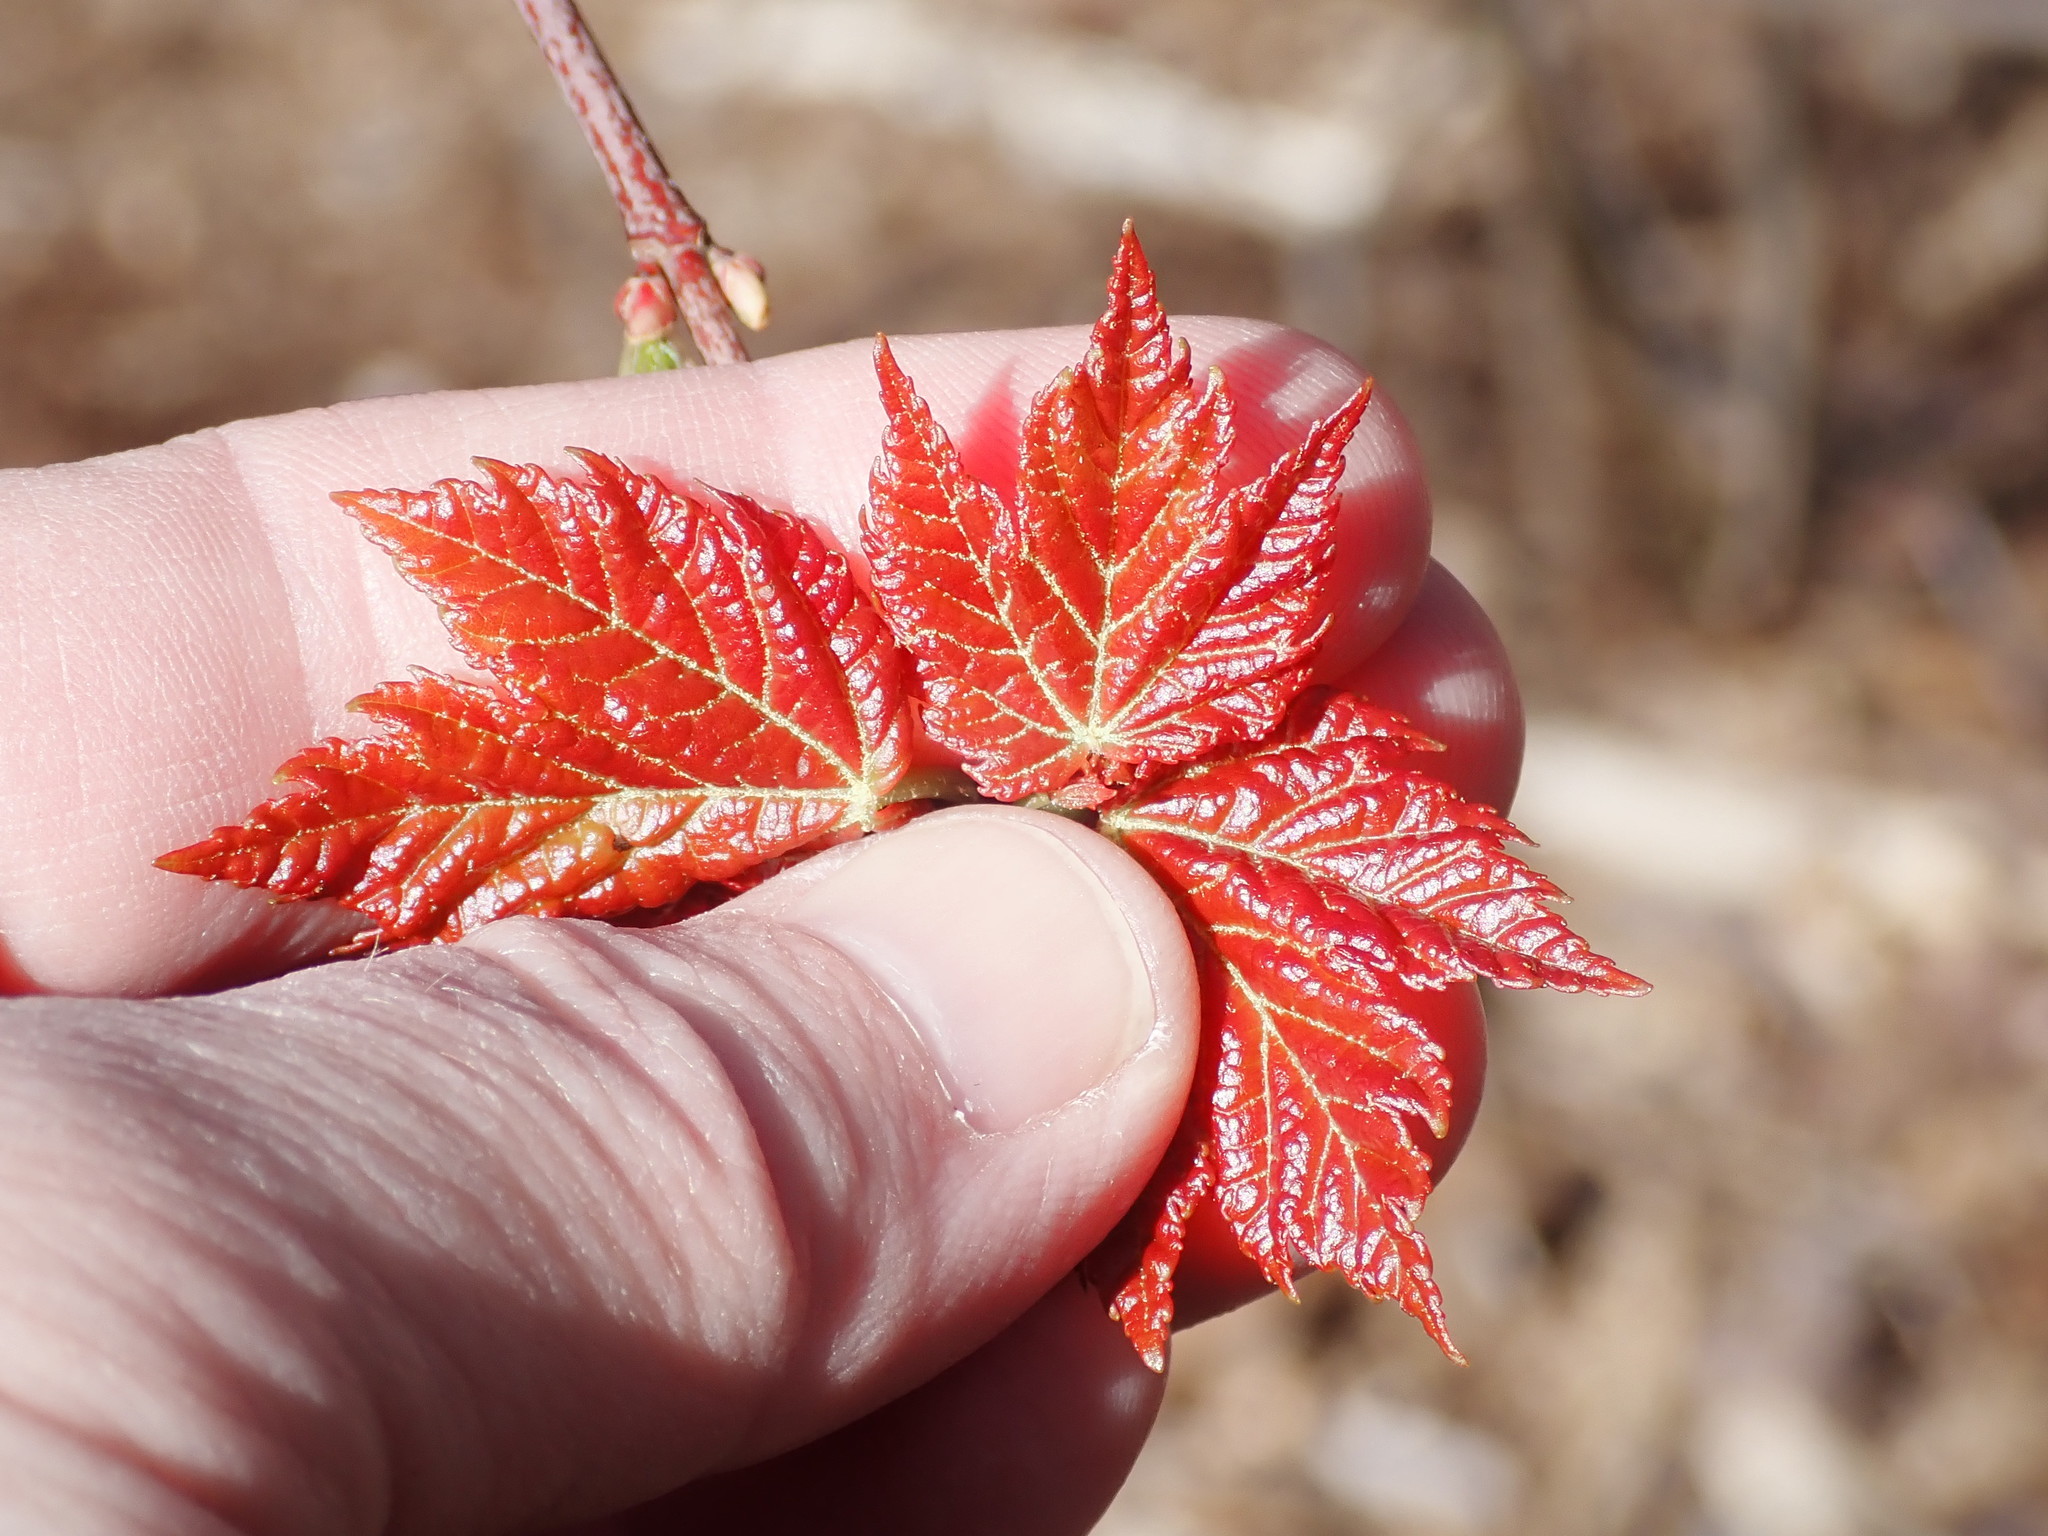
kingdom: Plantae
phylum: Tracheophyta
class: Magnoliopsida
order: Sapindales
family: Sapindaceae
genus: Acer
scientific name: Acer rubrum
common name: Red maple
